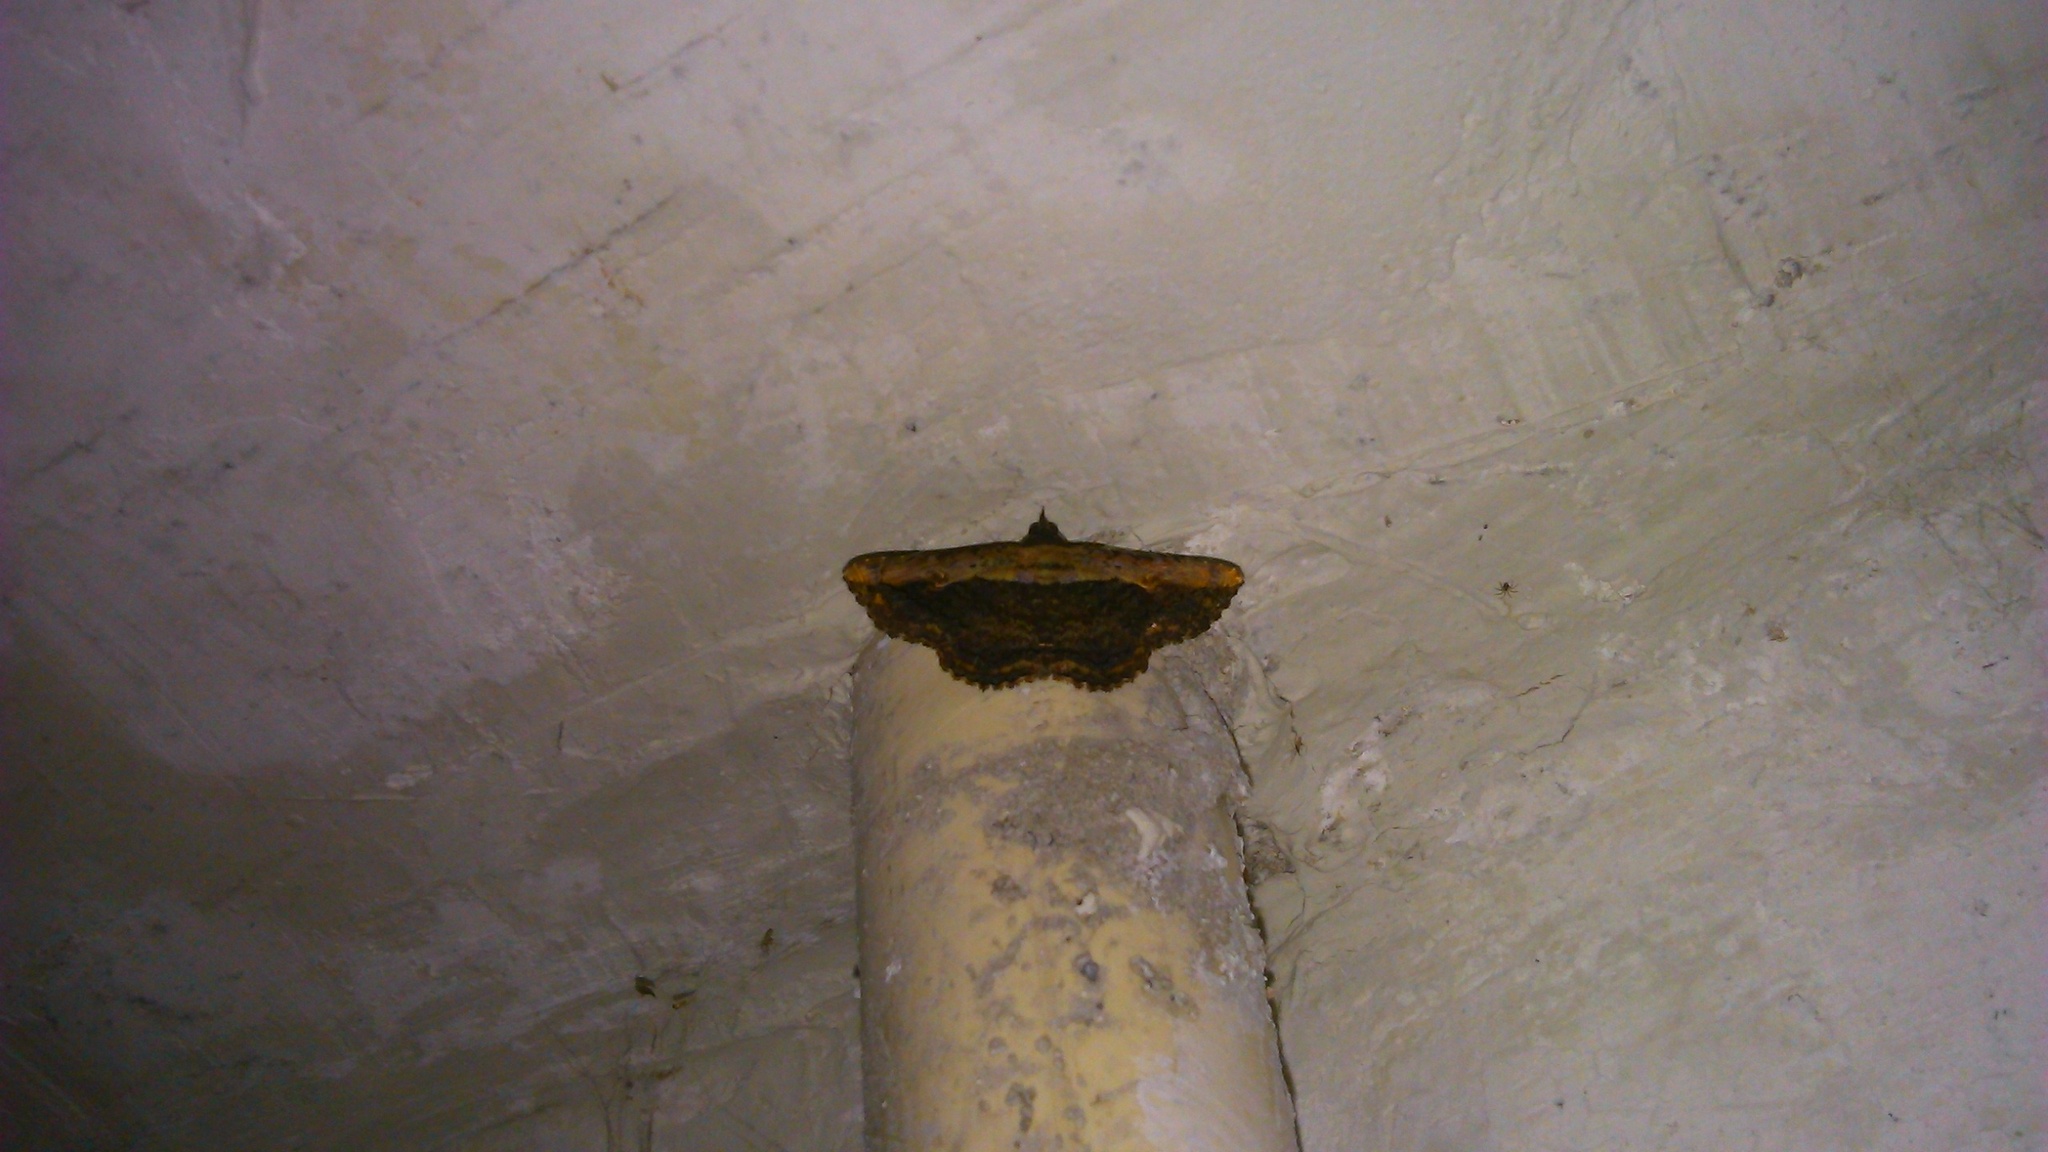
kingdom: Animalia
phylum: Arthropoda
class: Insecta
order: Lepidoptera
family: Erebidae
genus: Selenisa
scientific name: Selenisa sueroides
